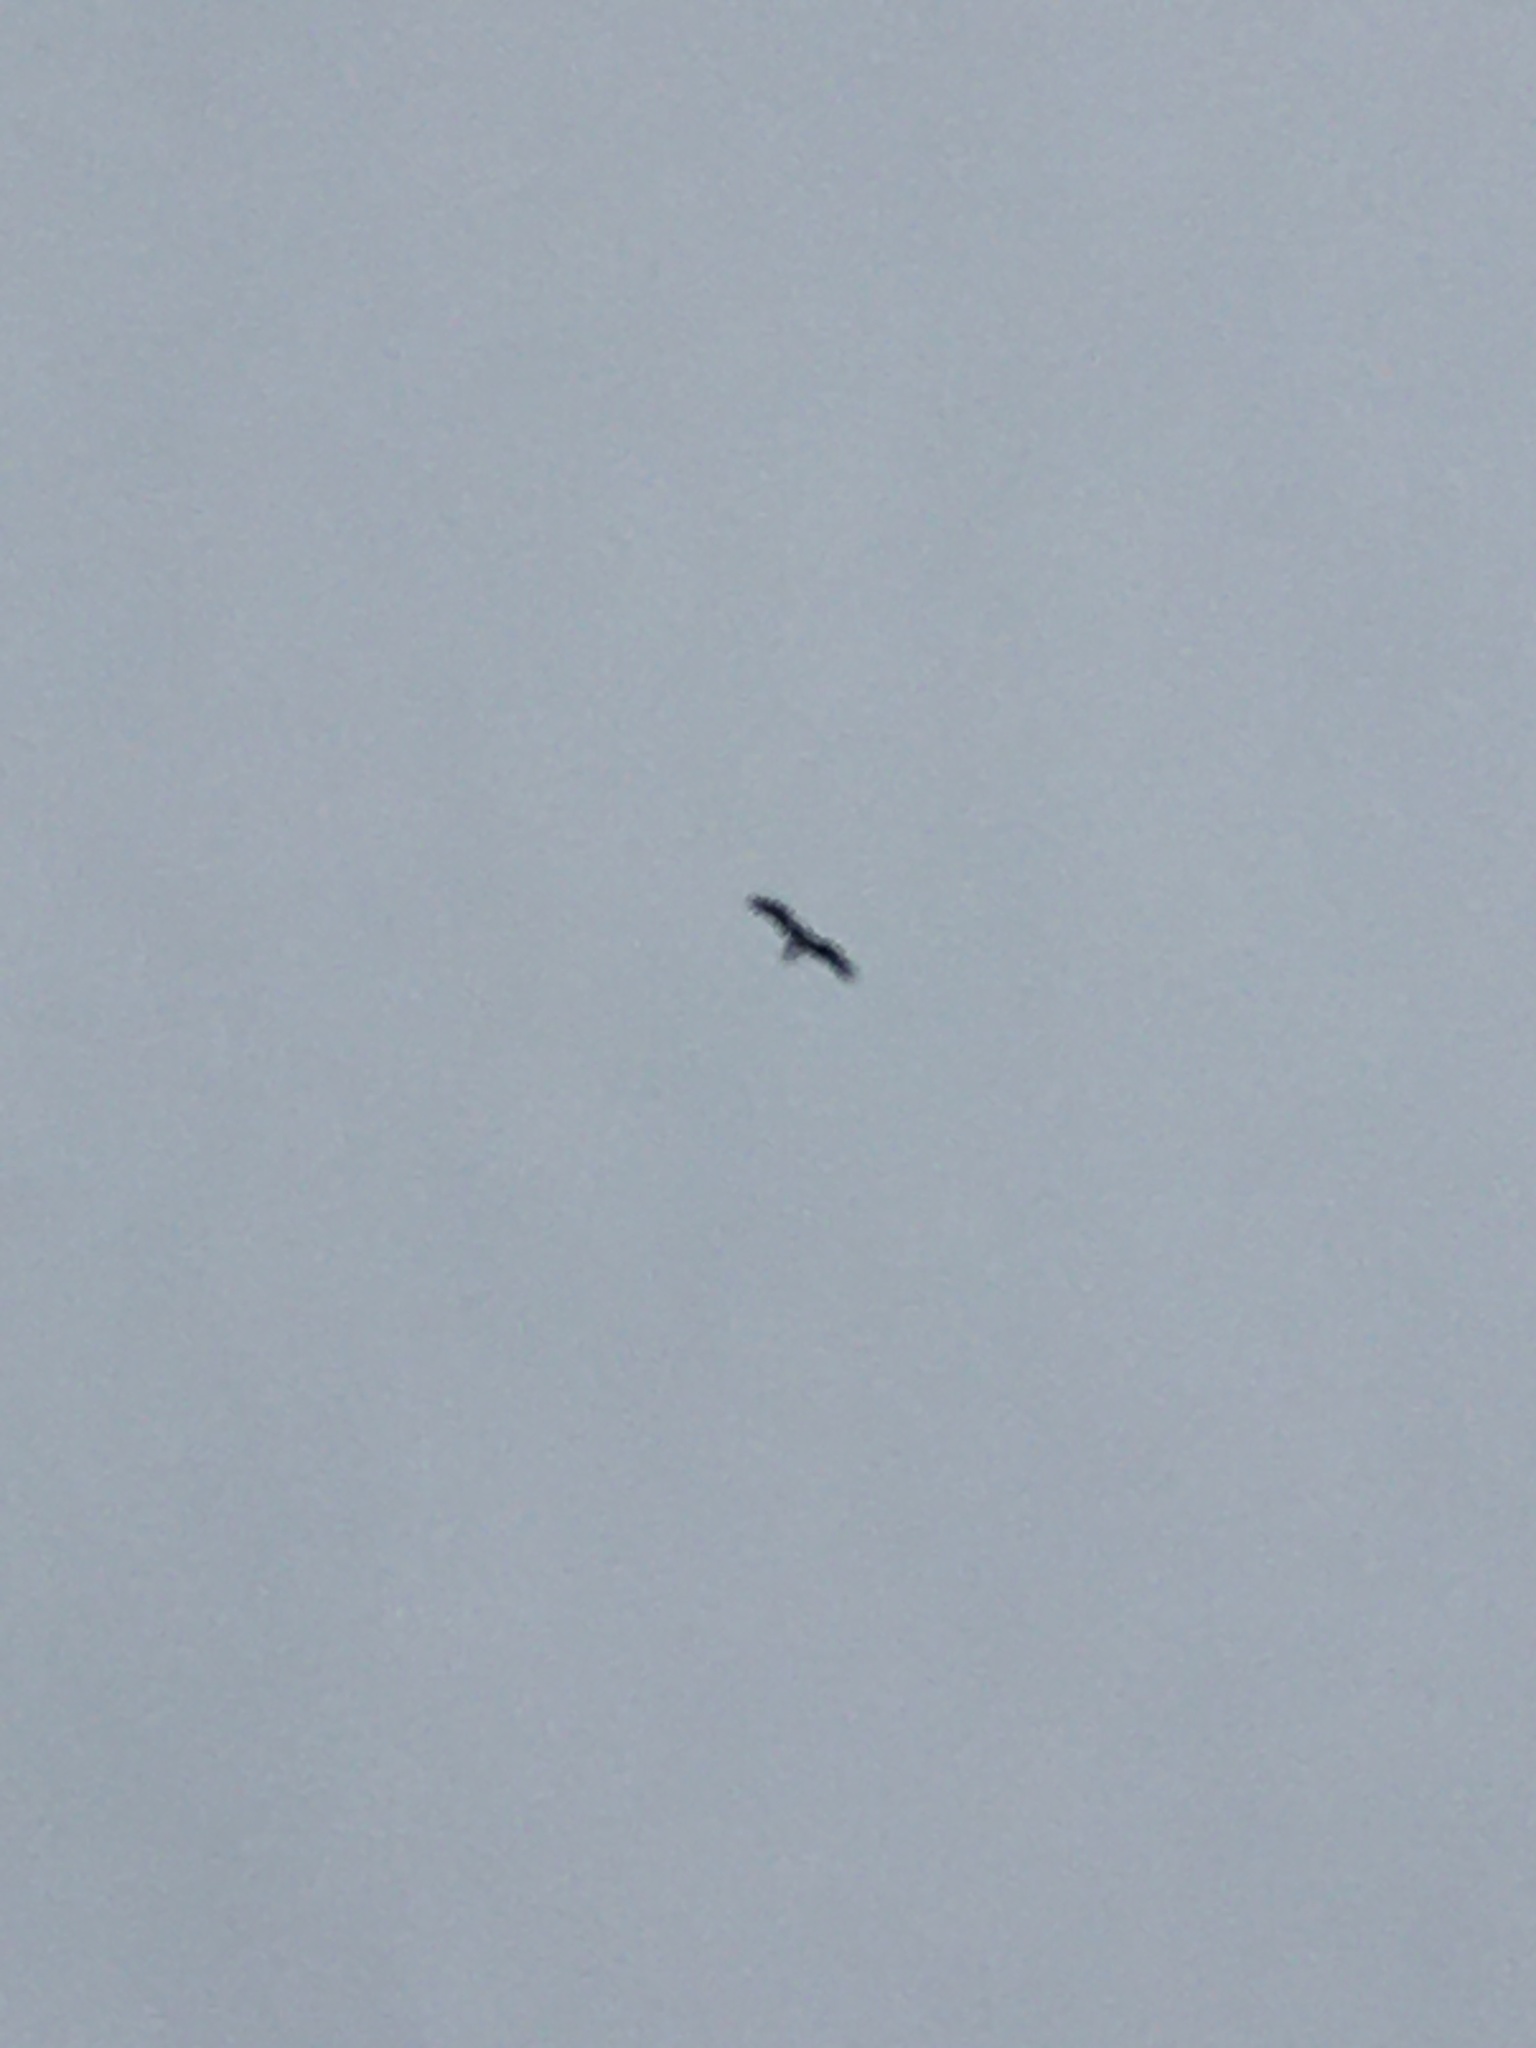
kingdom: Animalia
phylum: Chordata
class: Aves
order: Accipitriformes
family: Pandionidae
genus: Pandion
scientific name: Pandion haliaetus
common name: Osprey
